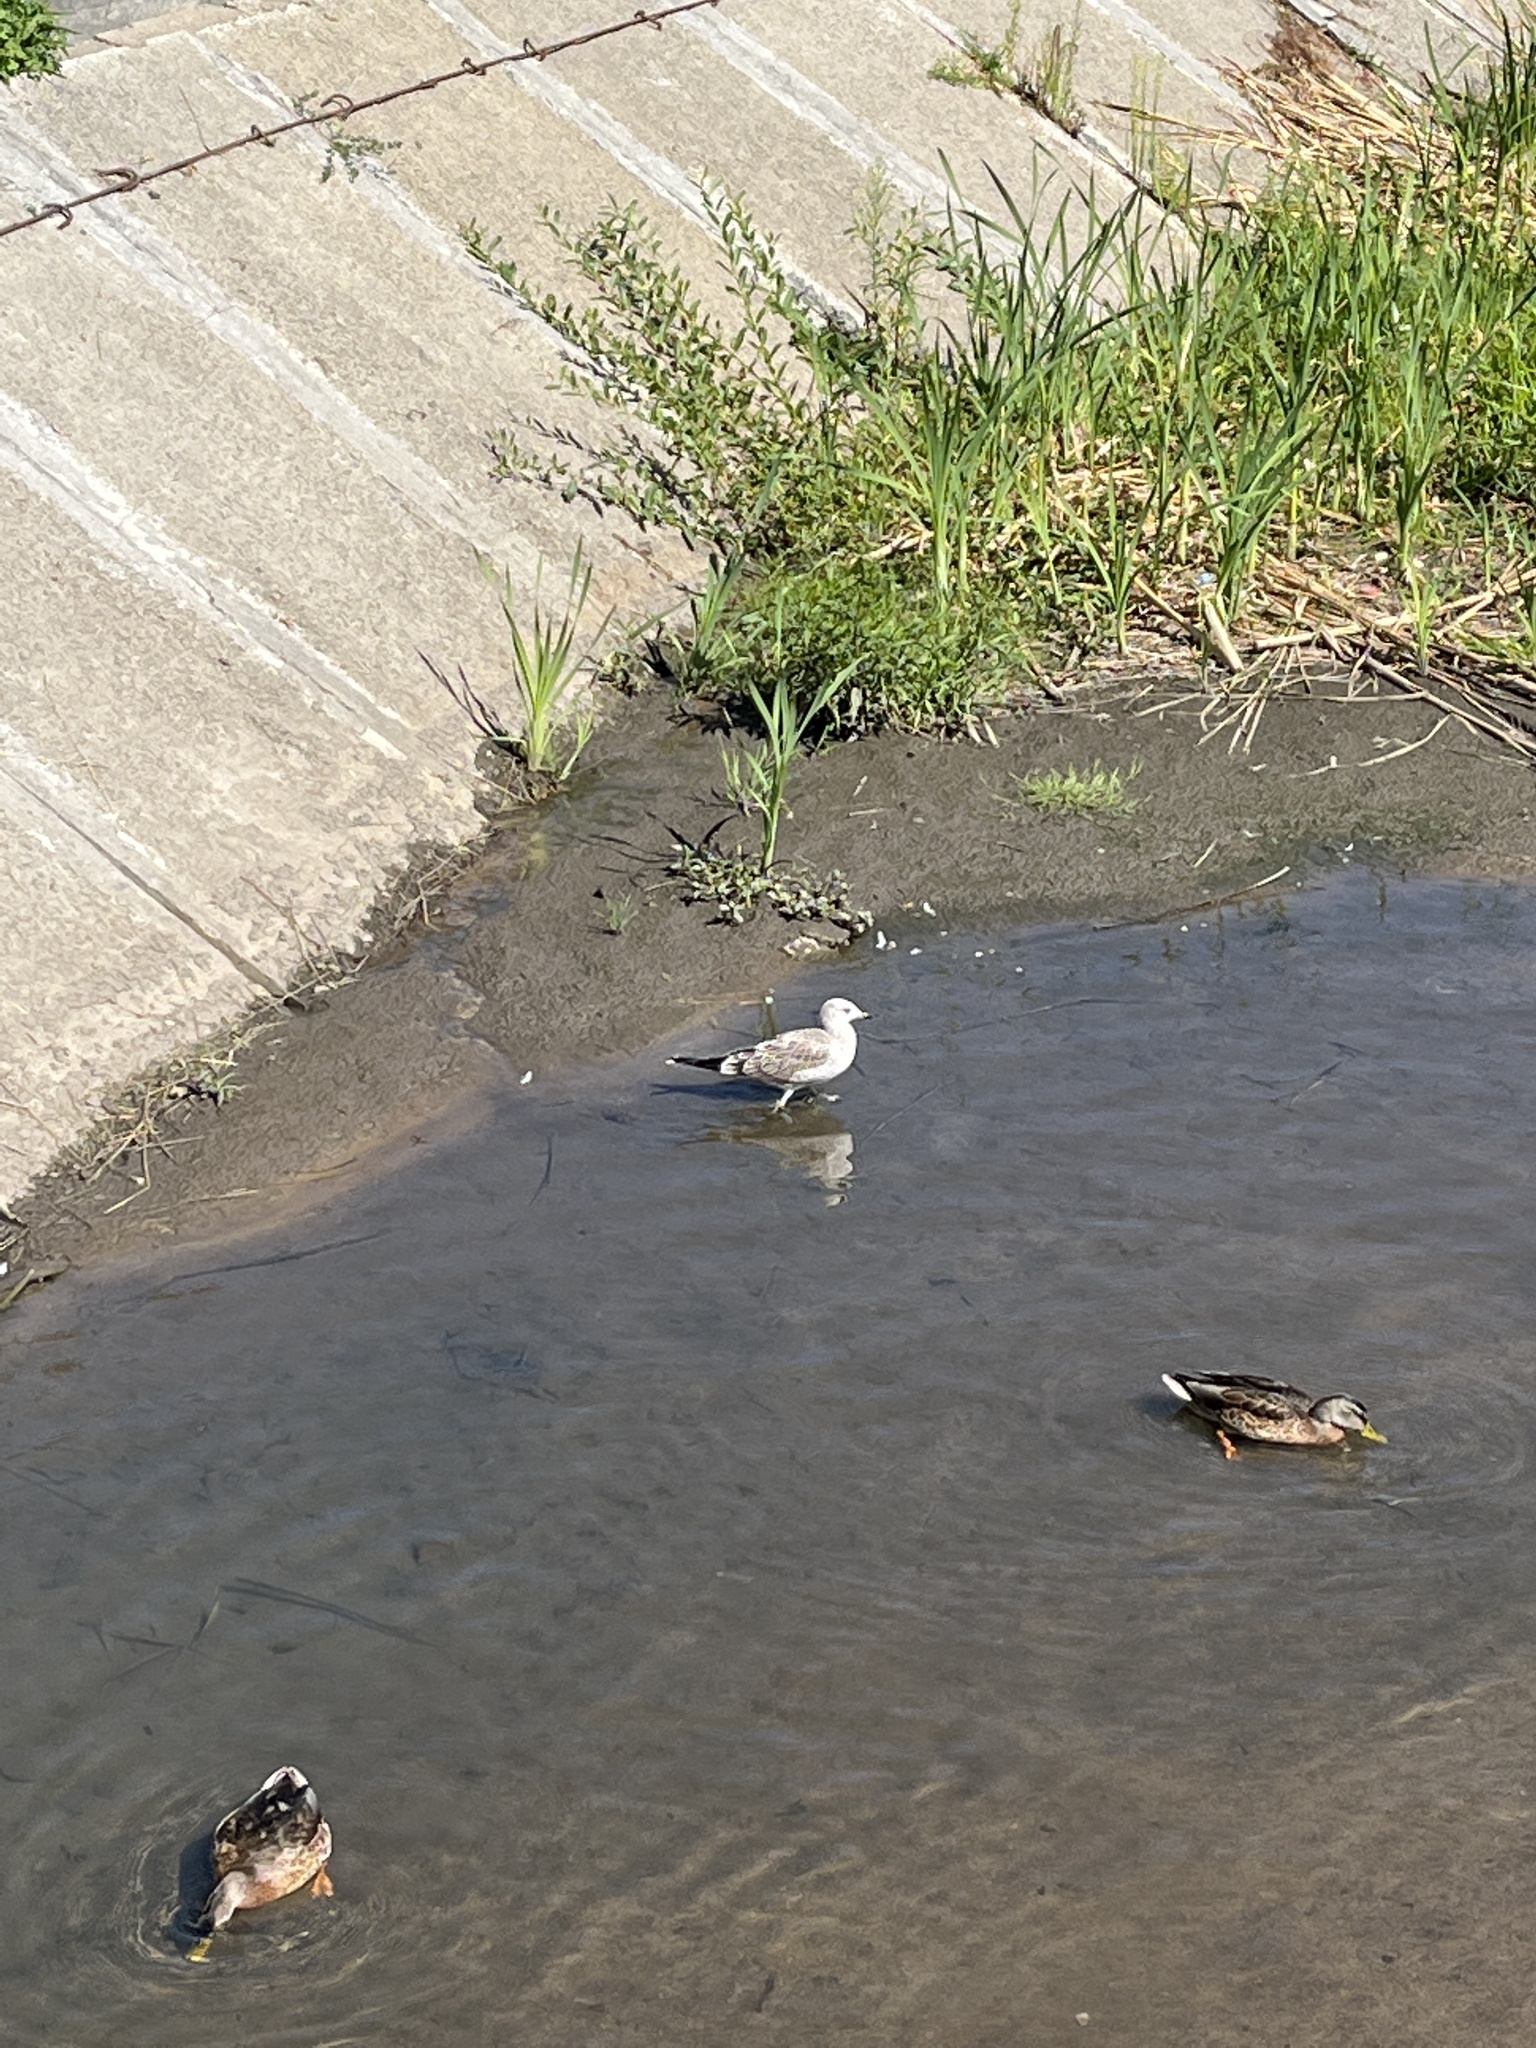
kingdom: Animalia
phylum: Chordata
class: Aves
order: Charadriiformes
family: Laridae
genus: Larus
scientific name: Larus canus
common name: Mew gull
